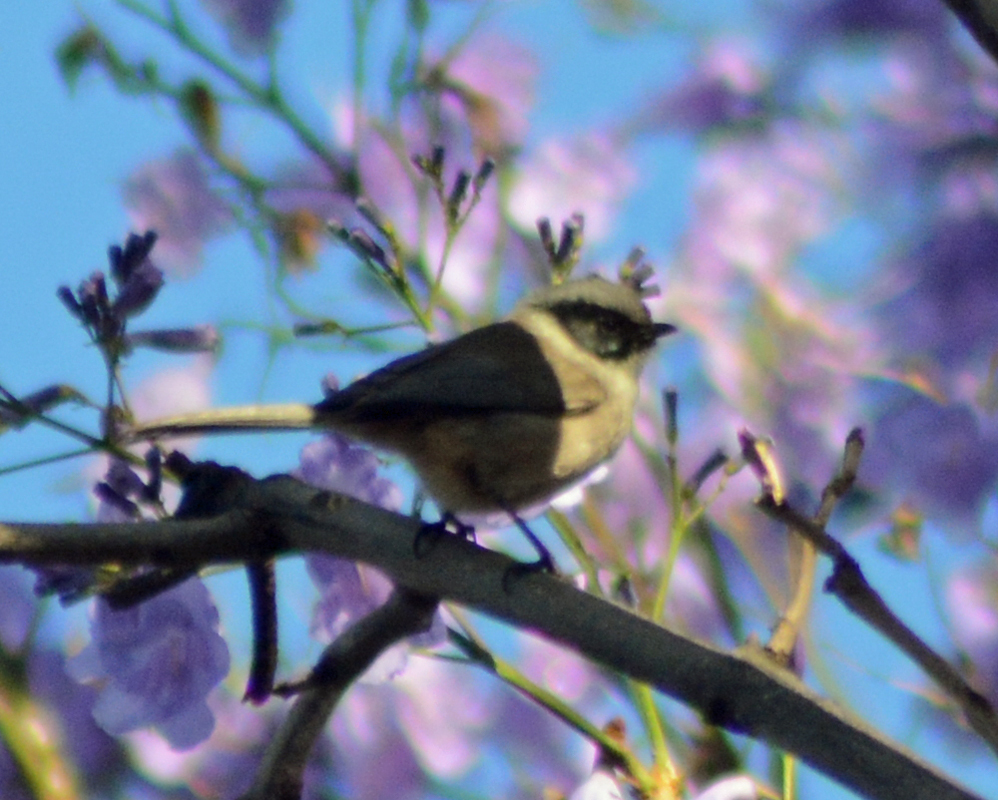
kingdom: Animalia
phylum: Chordata
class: Aves
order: Passeriformes
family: Aegithalidae
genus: Psaltriparus
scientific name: Psaltriparus minimus
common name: American bushtit
